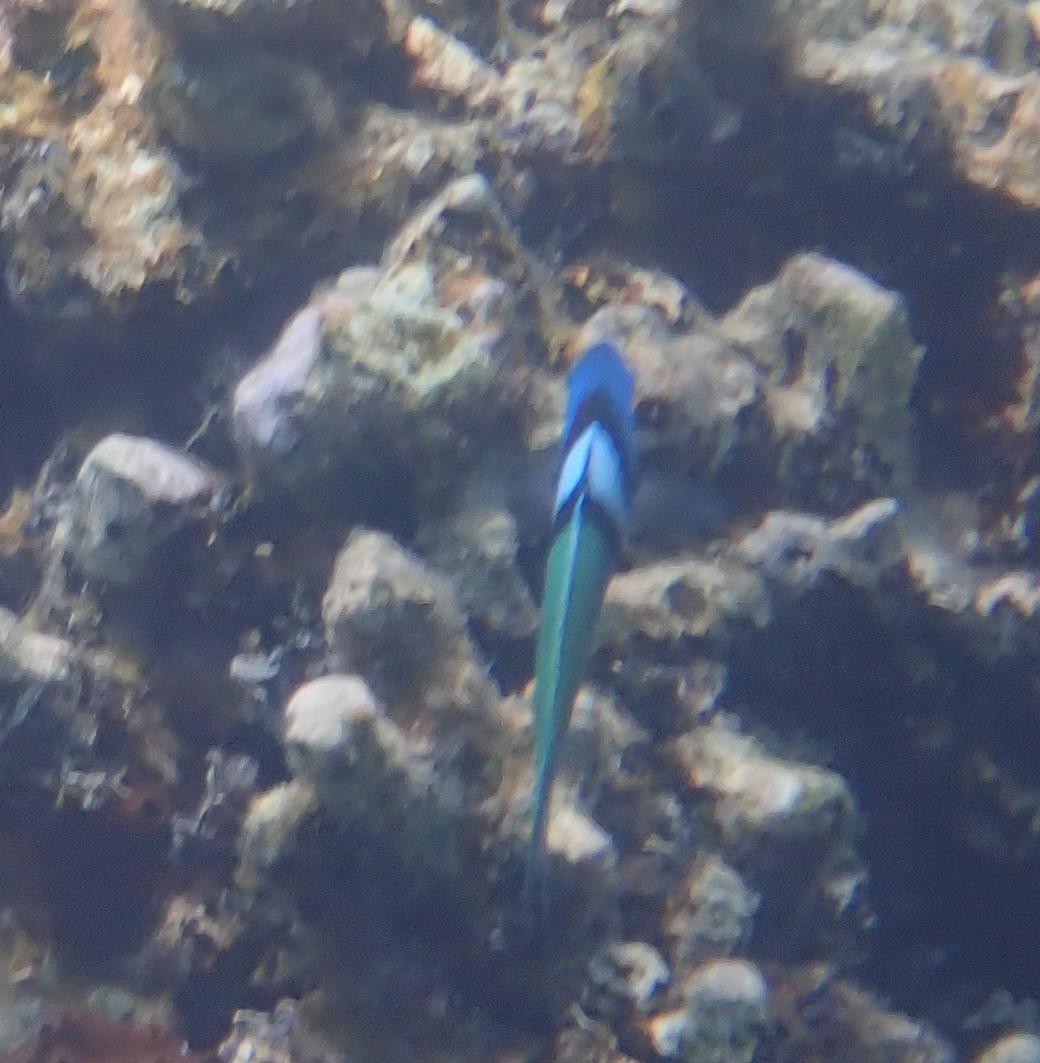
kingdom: Animalia
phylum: Chordata
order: Perciformes
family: Labridae
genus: Thalassoma
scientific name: Thalassoma bifasciatum
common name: Bluehead wrasse
